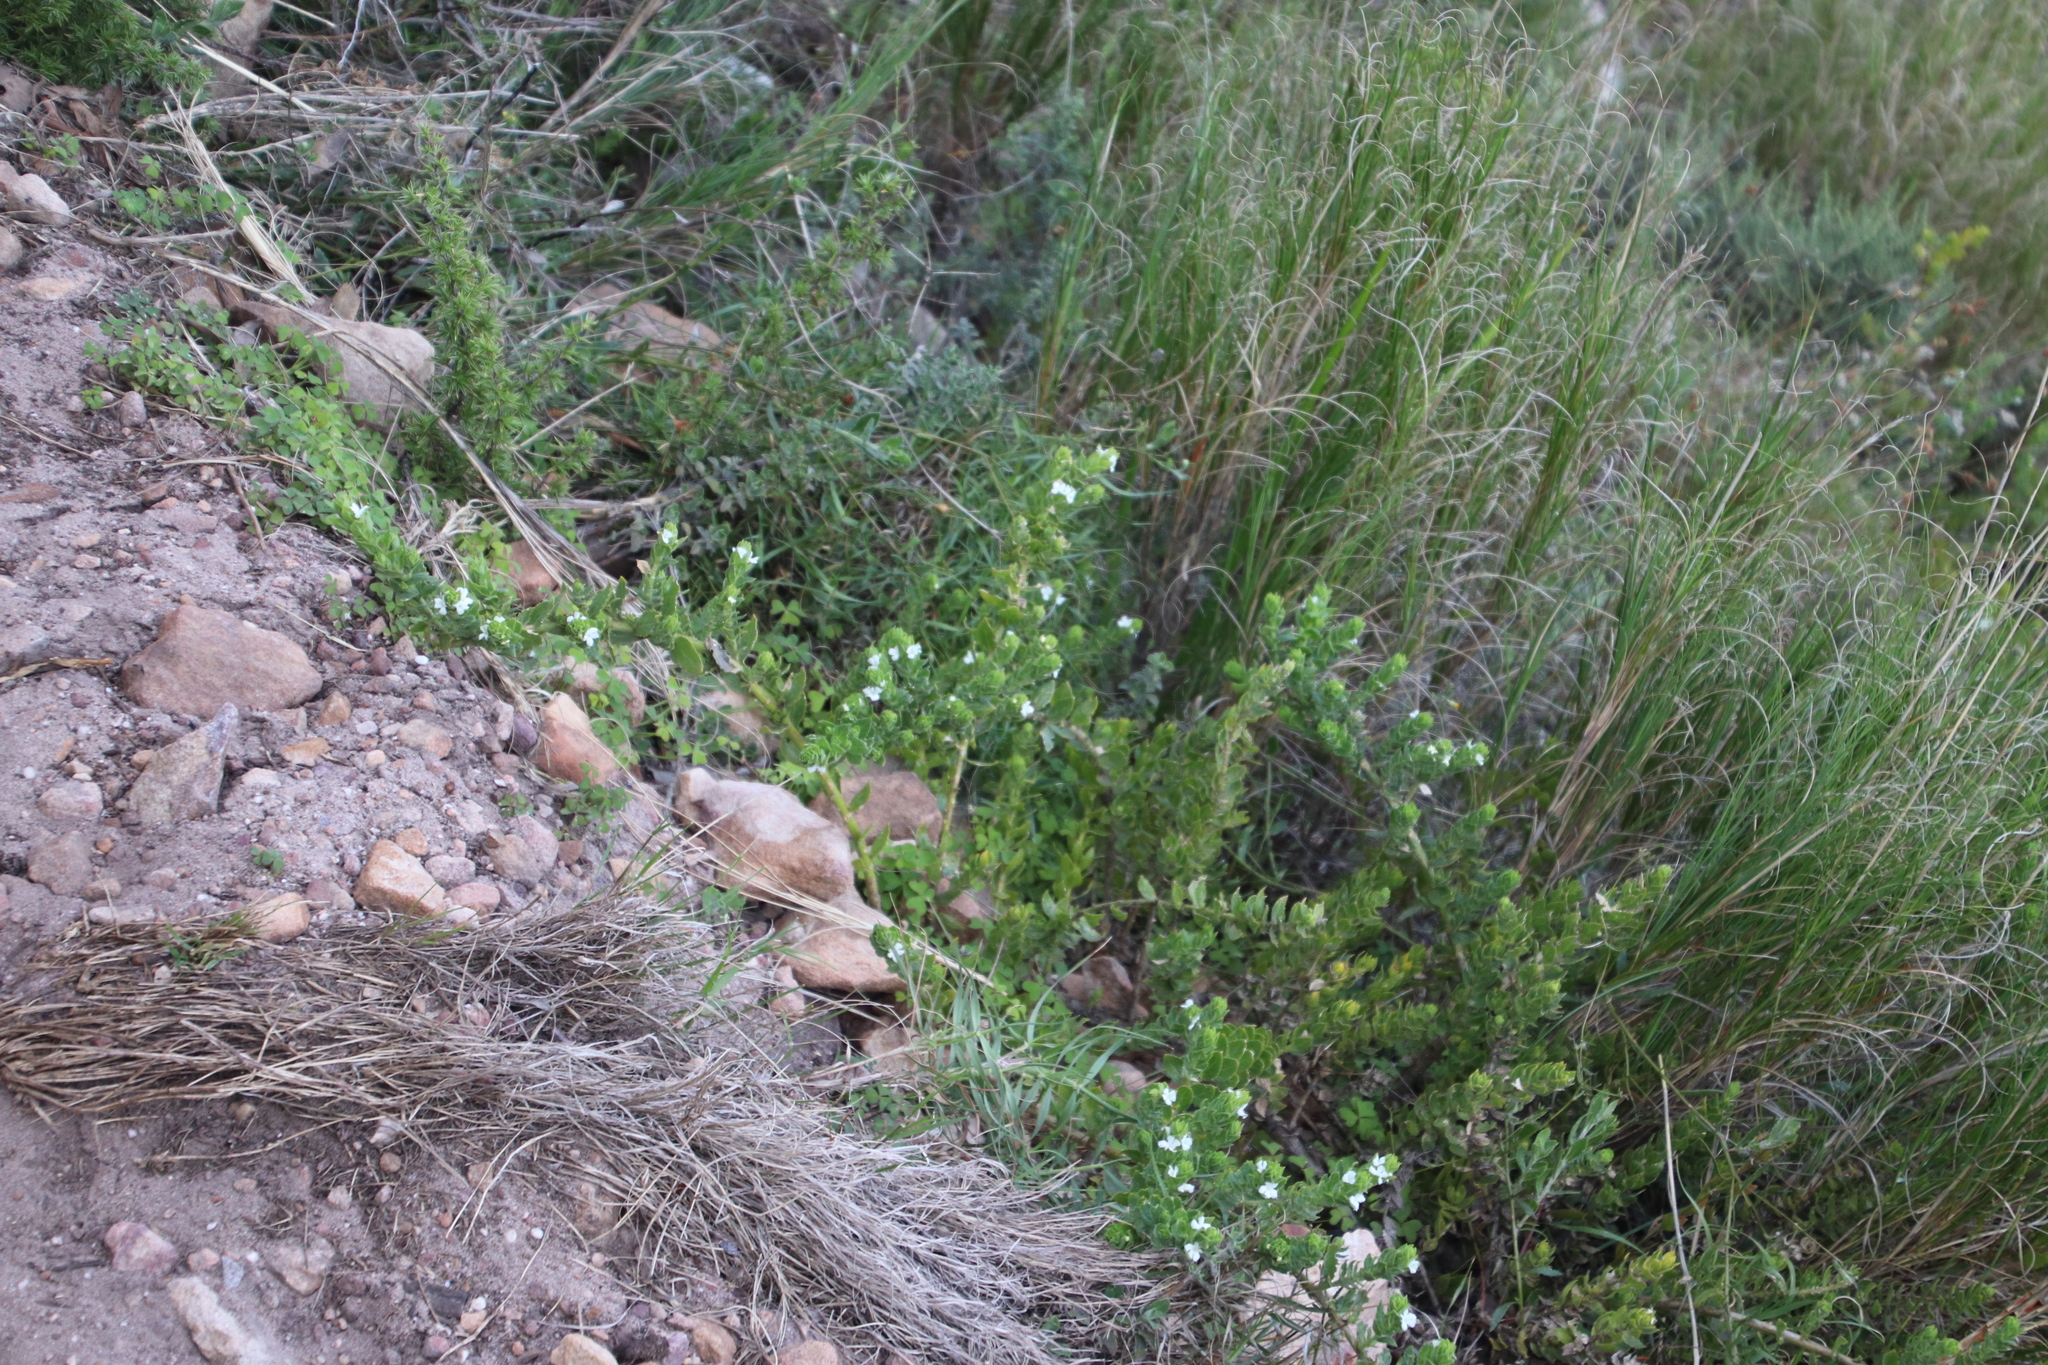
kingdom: Plantae
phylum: Tracheophyta
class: Magnoliopsida
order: Lamiales
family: Scrophulariaceae
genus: Oftia
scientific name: Oftia africana
